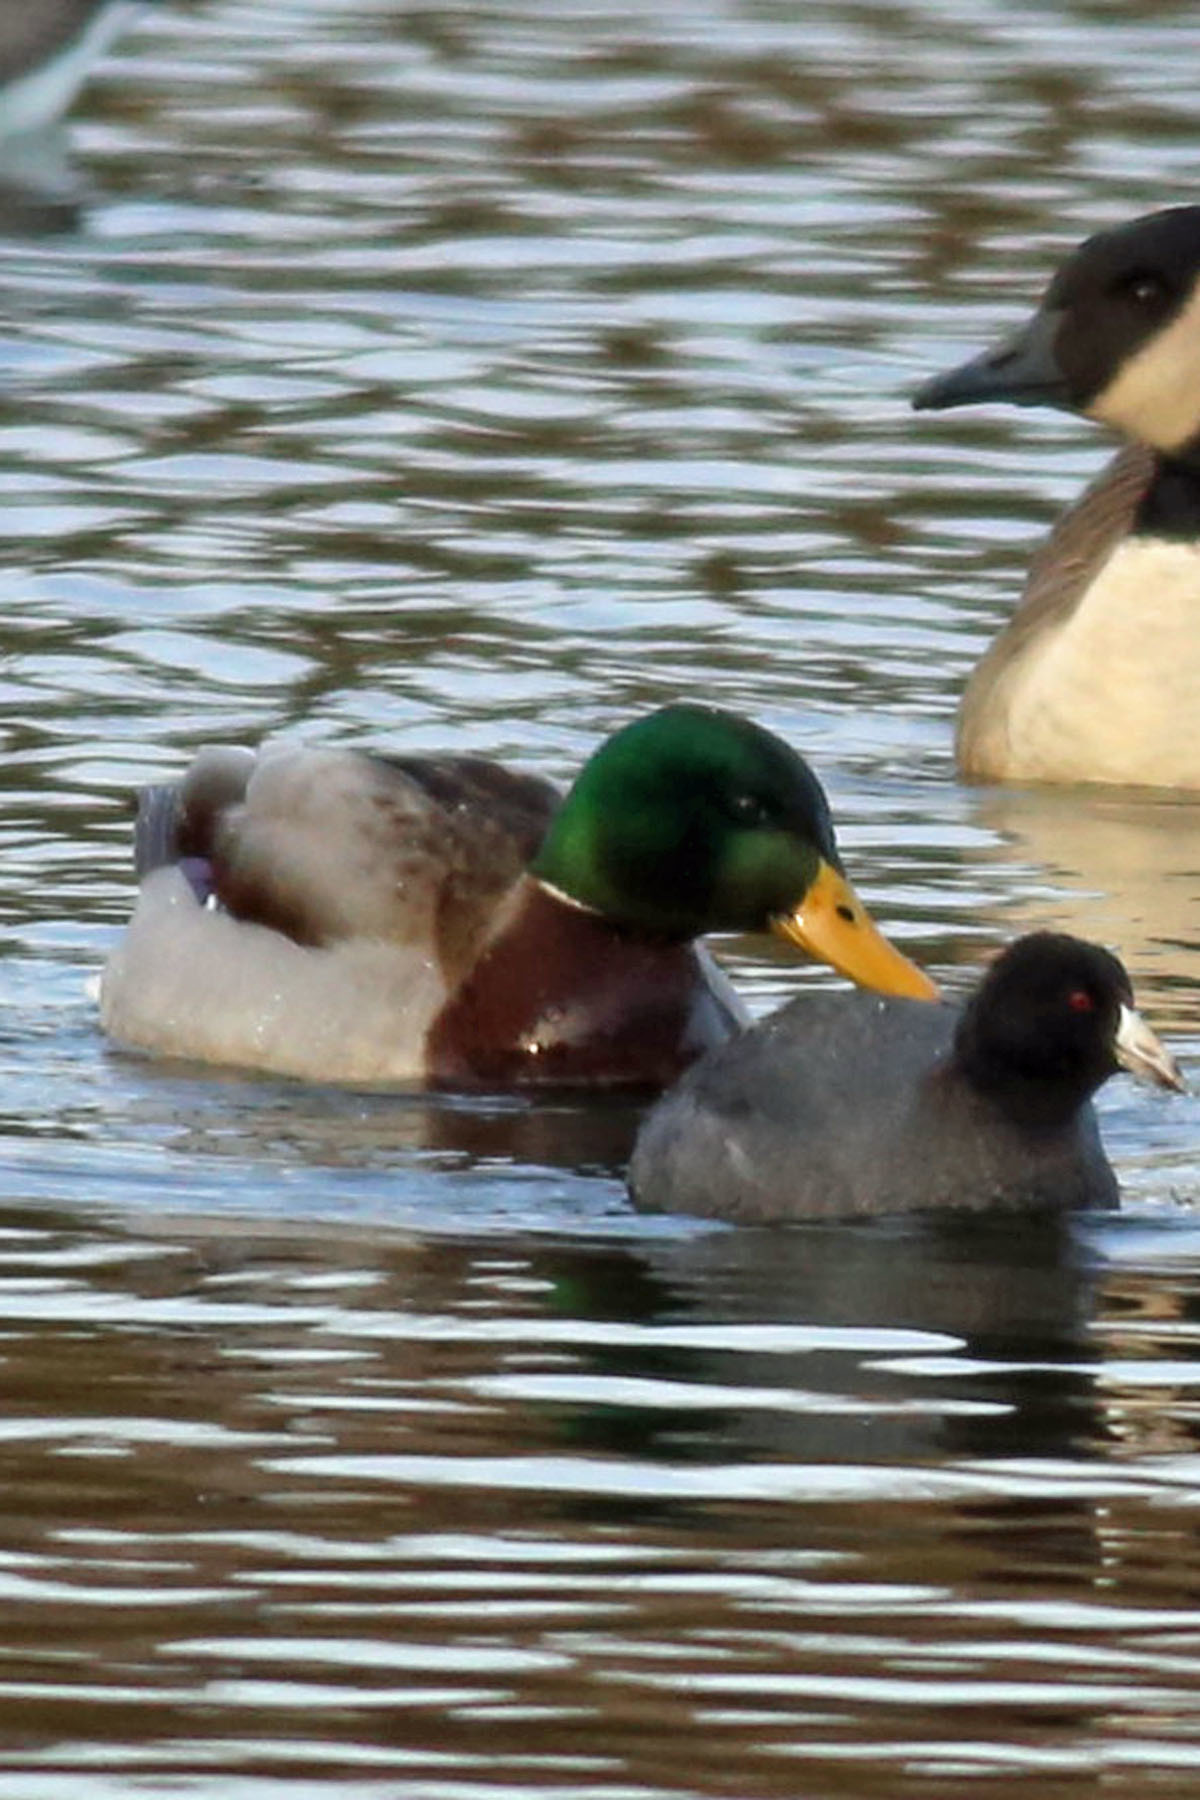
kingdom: Animalia
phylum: Chordata
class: Aves
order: Anseriformes
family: Anatidae
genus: Anas
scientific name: Anas platyrhynchos
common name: Mallard
